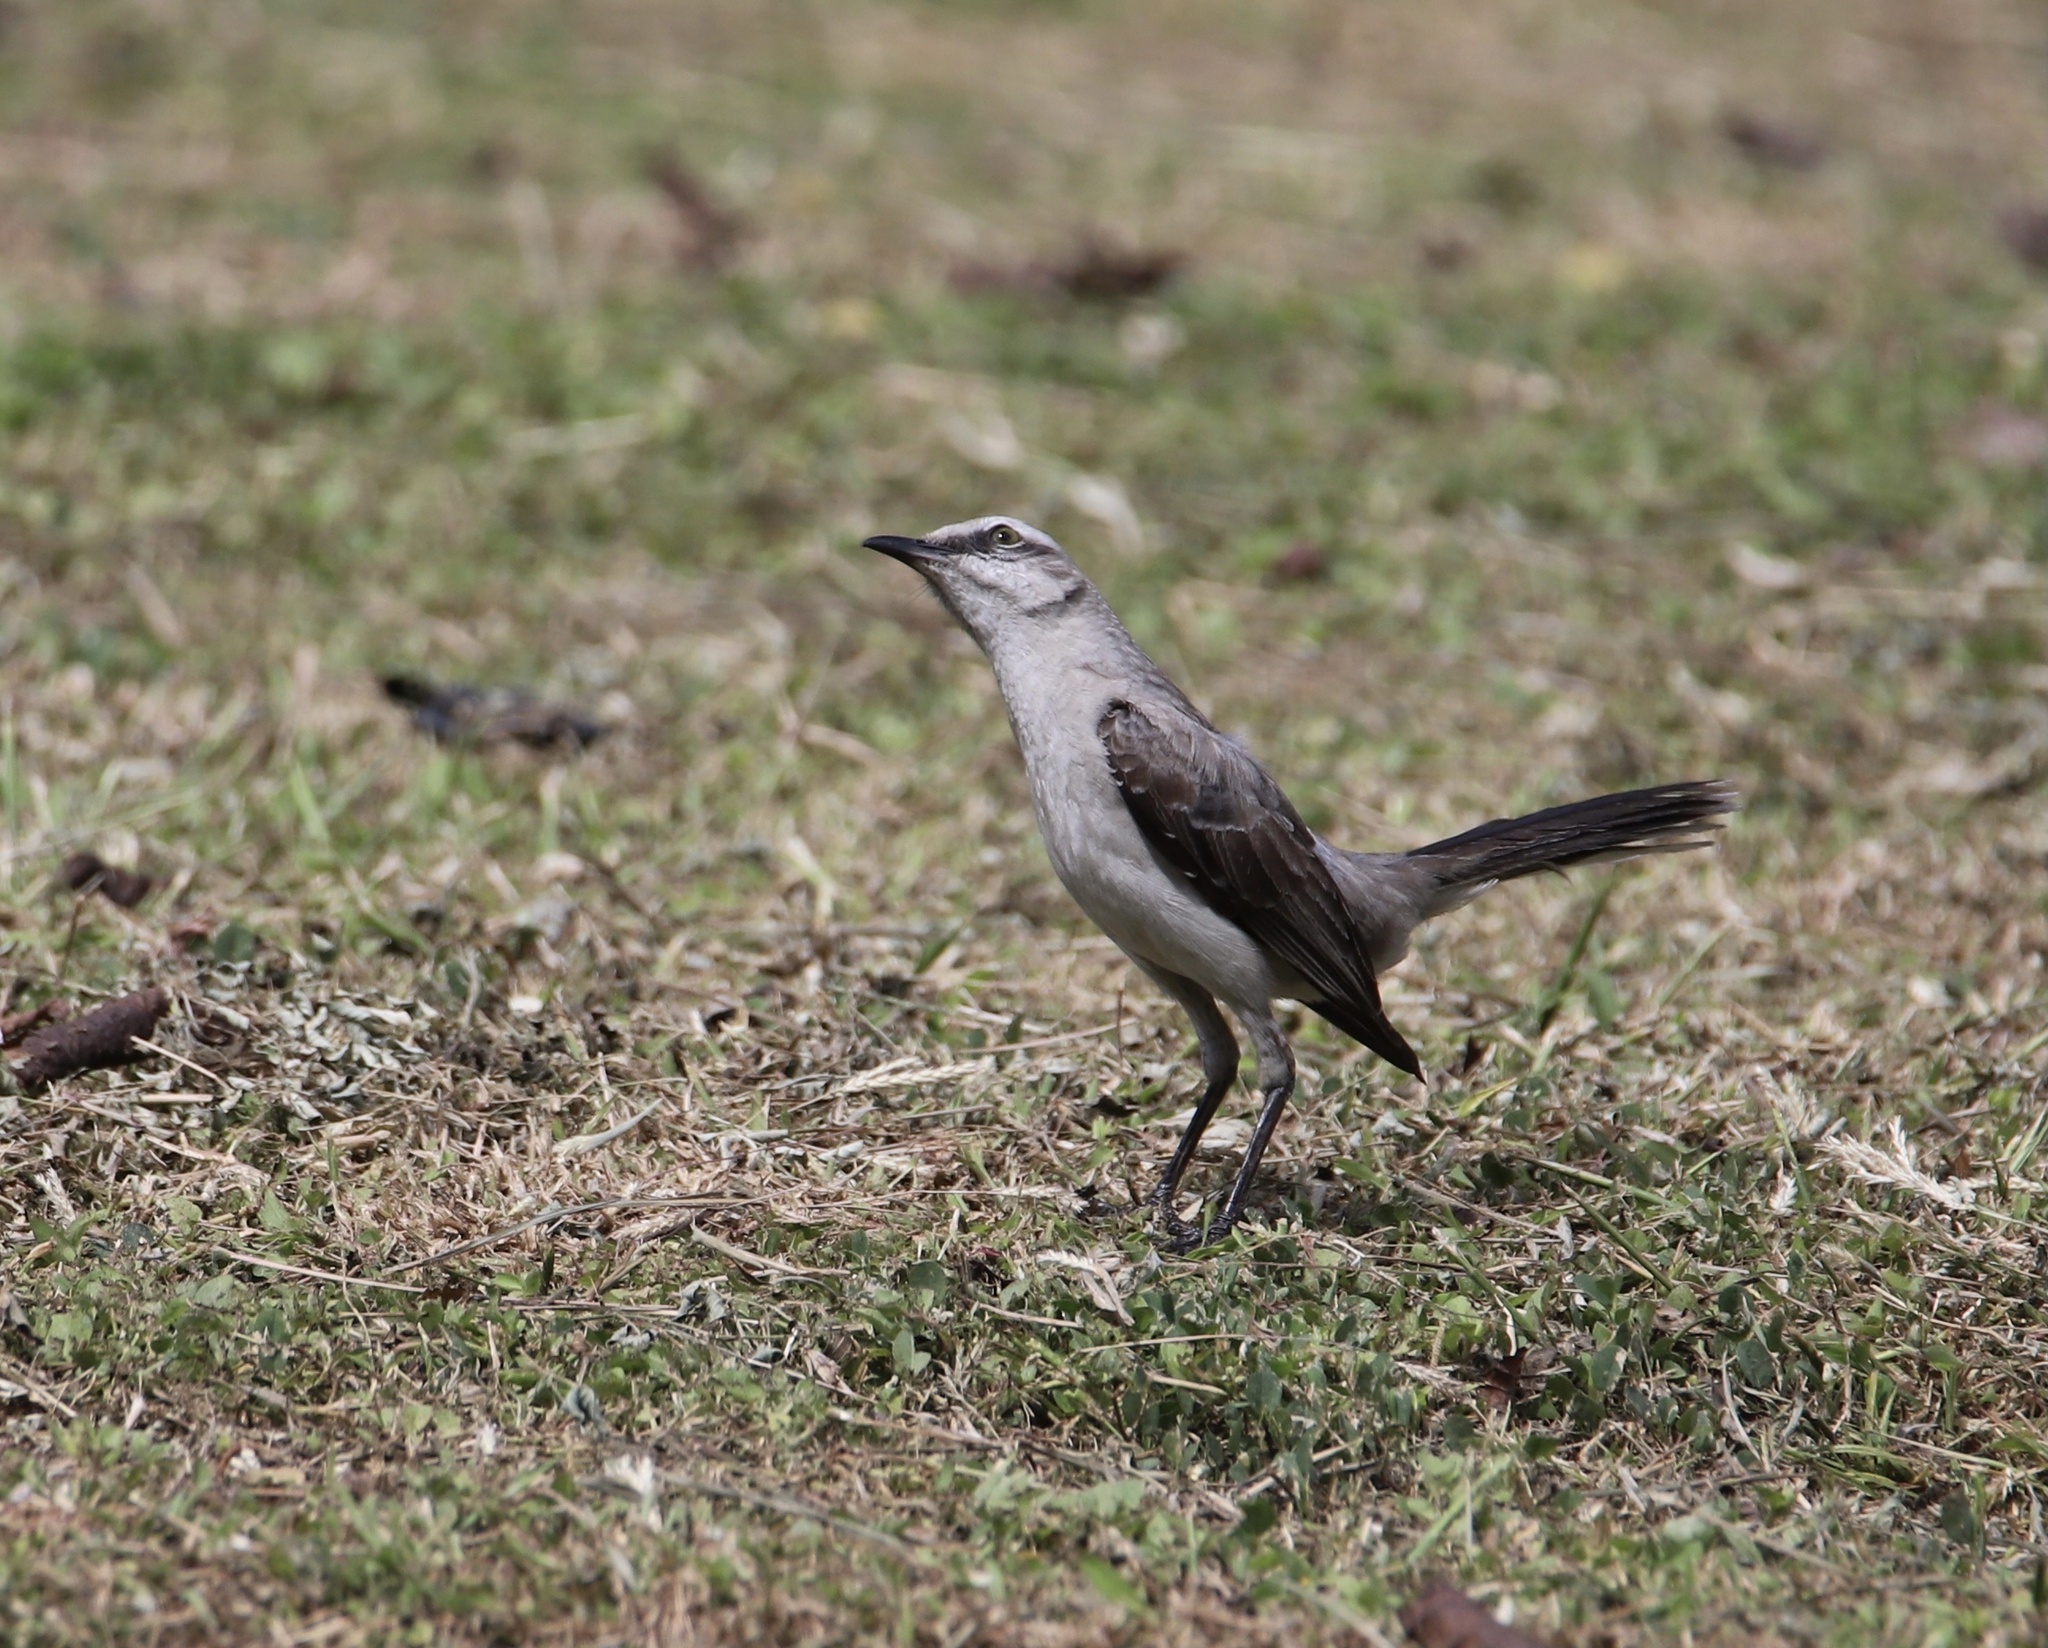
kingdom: Animalia
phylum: Chordata
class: Aves
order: Passeriformes
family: Mimidae
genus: Mimus
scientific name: Mimus gilvus
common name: Tropical mockingbird
